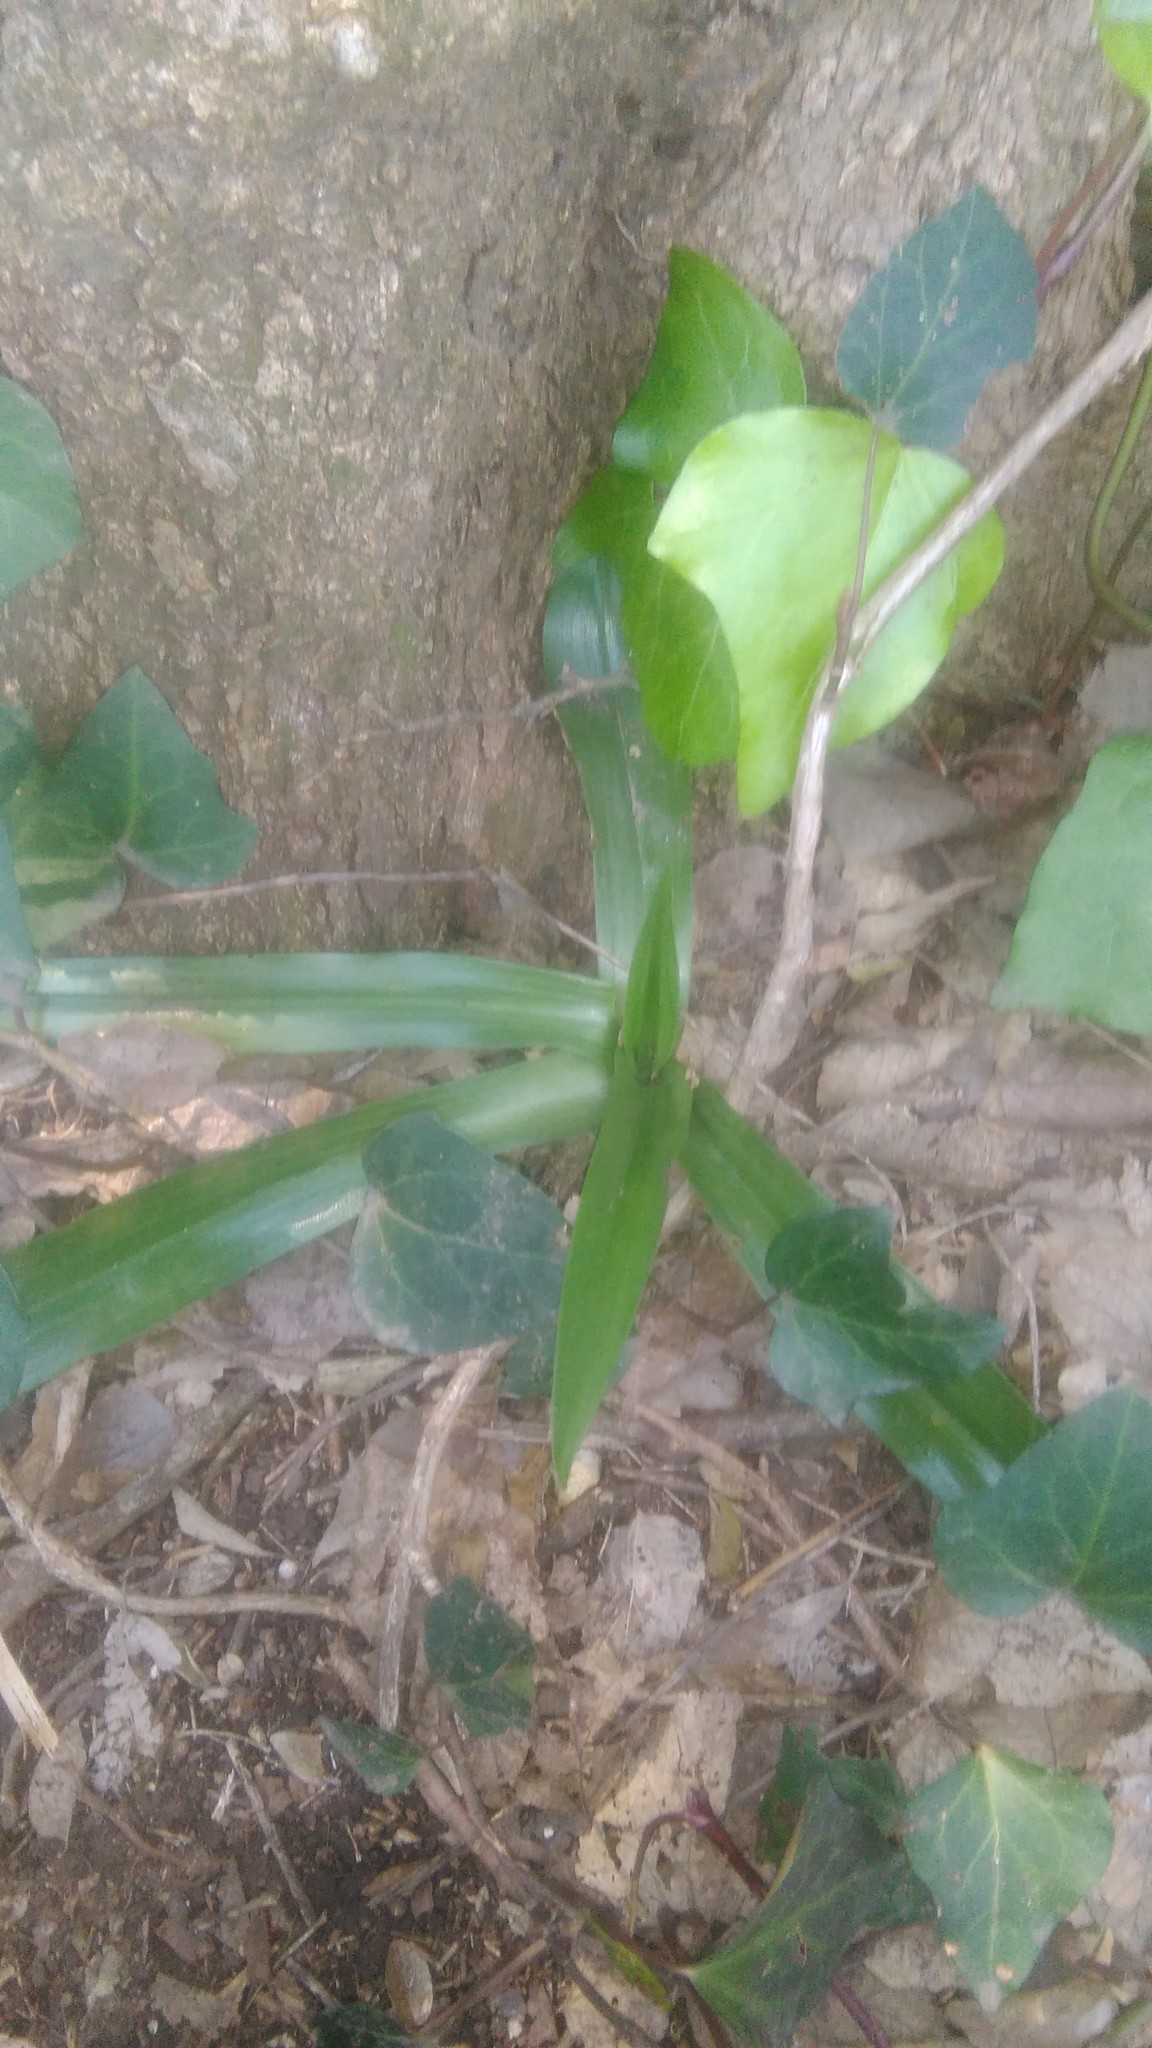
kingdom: Plantae
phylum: Tracheophyta
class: Liliopsida
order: Asparagales
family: Orchidaceae
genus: Chloraea
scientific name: Chloraea membranacea
